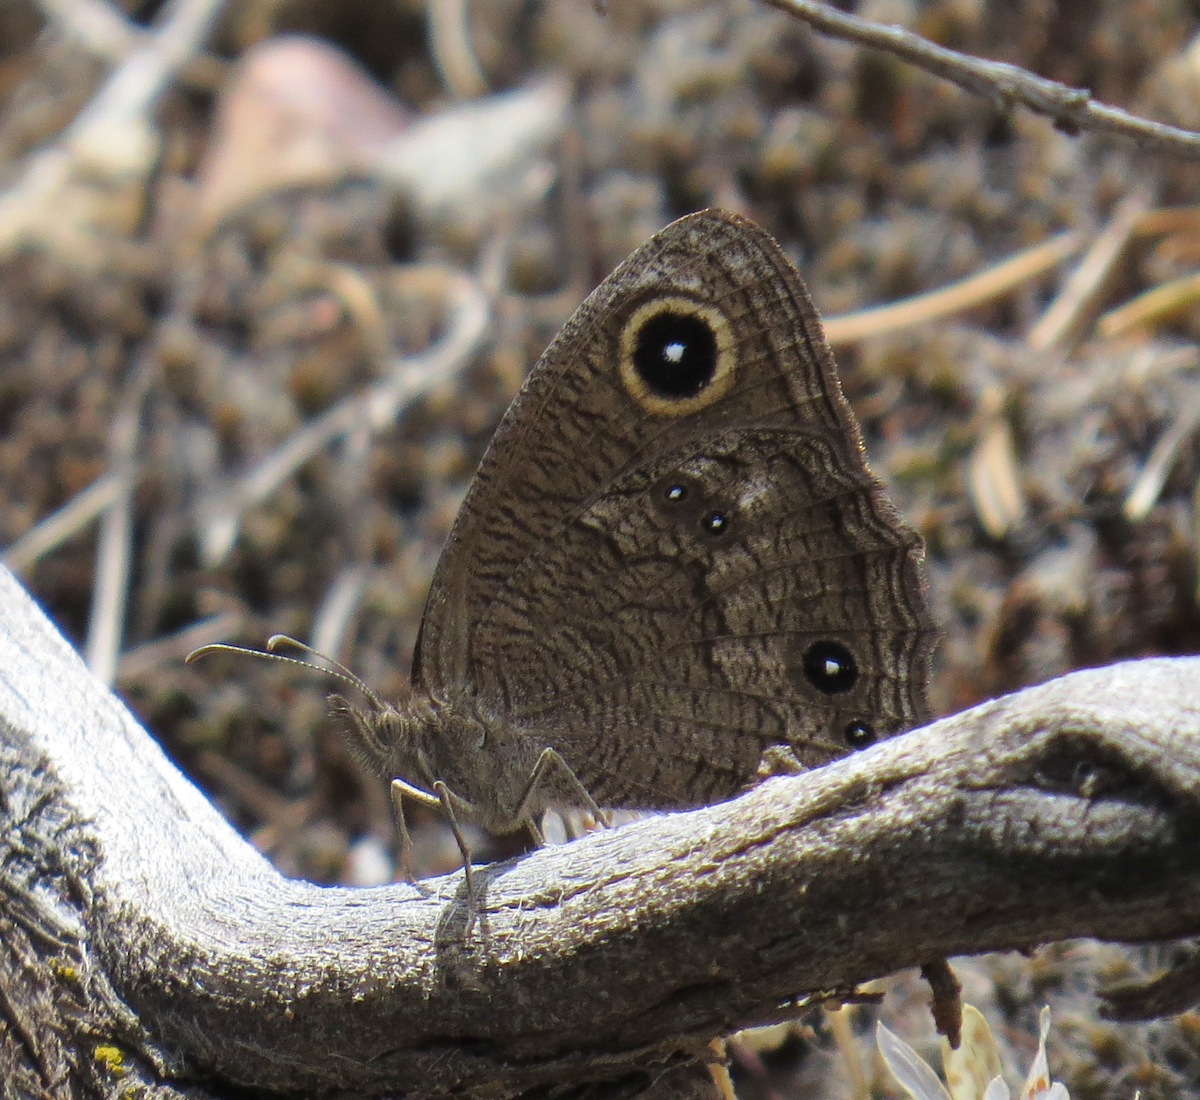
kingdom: Animalia
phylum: Arthropoda
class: Insecta
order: Lepidoptera
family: Nymphalidae
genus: Cercyonis
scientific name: Cercyonis sthenele
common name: Great basin wood-nymph
